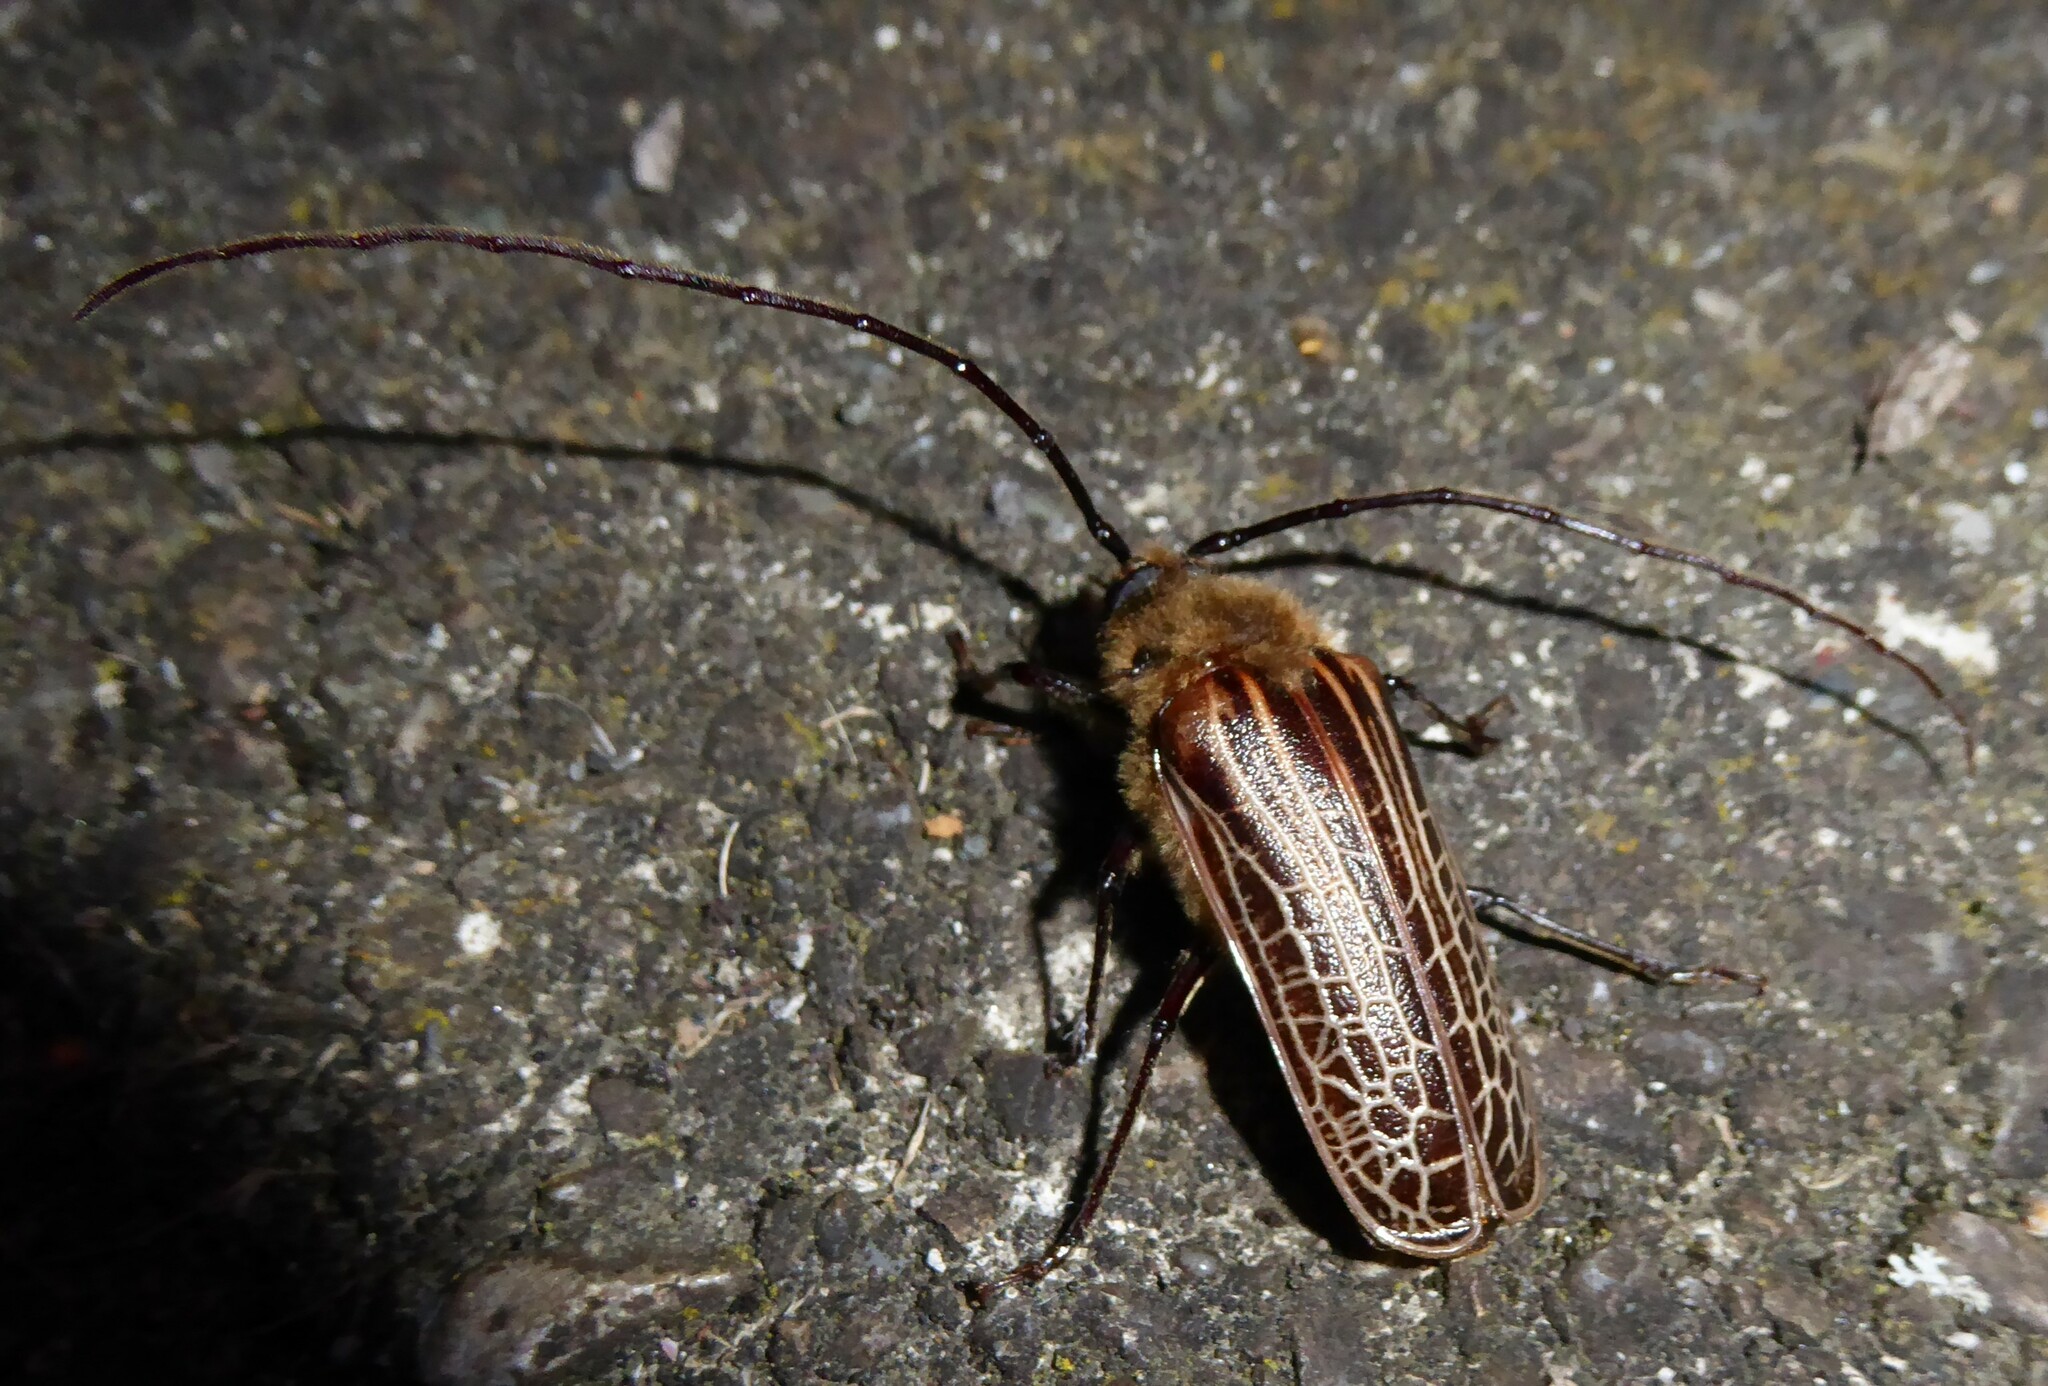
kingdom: Animalia
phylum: Arthropoda
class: Insecta
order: Coleoptera
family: Cerambycidae
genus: Prionoplus
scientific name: Prionoplus reticularis
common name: Huhu beetle
